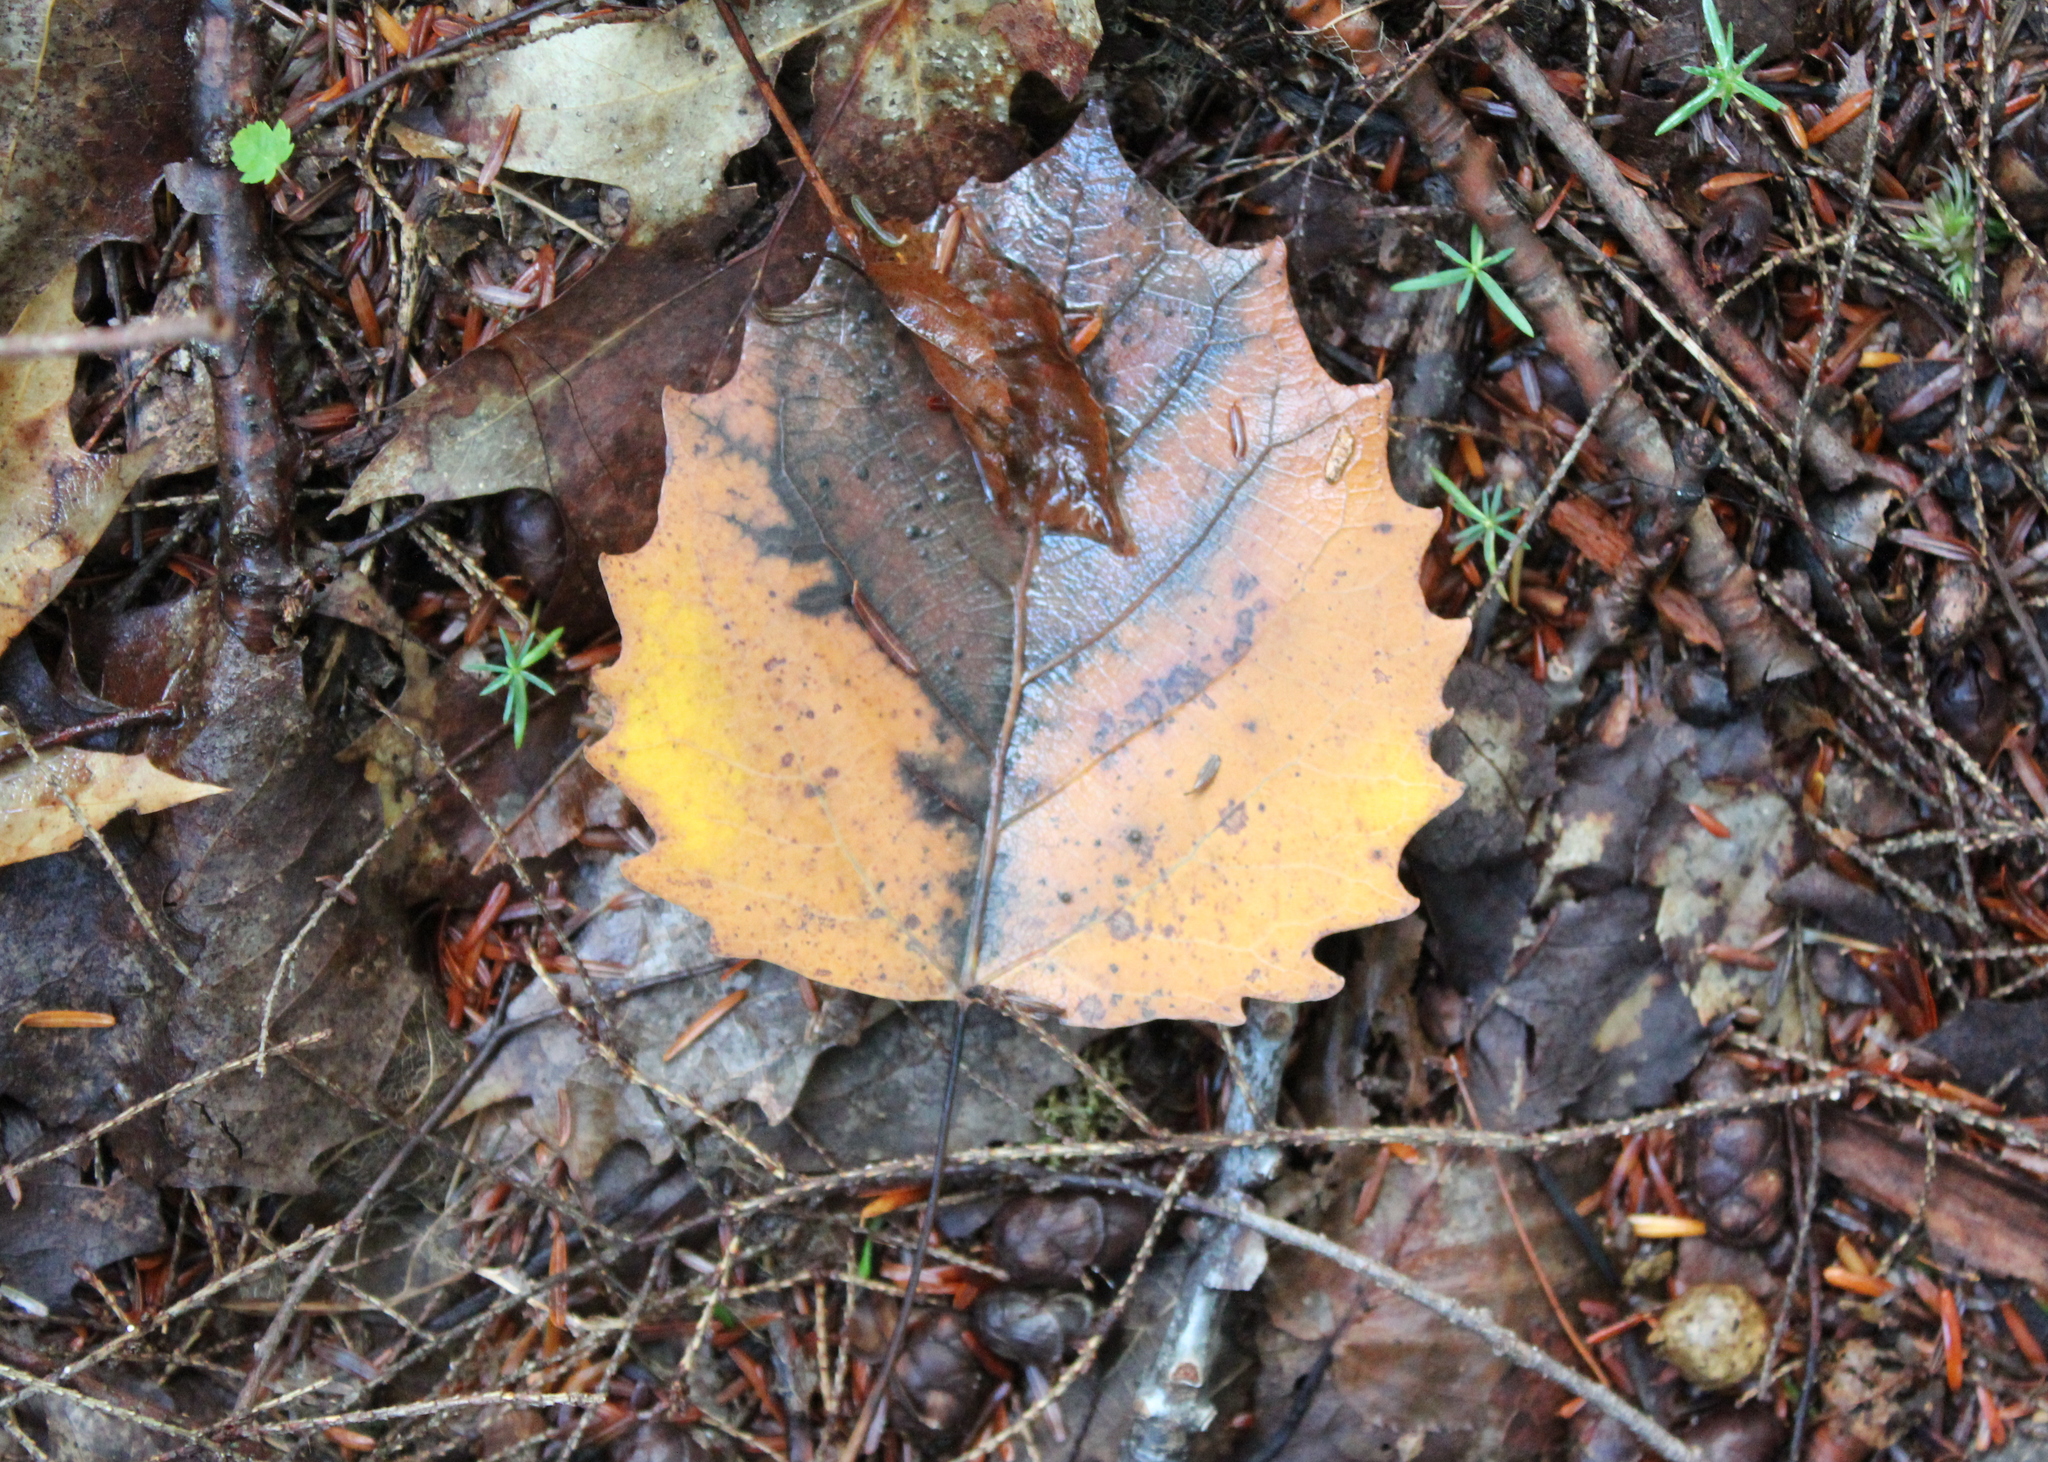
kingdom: Plantae
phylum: Tracheophyta
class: Magnoliopsida
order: Malpighiales
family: Salicaceae
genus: Populus
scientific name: Populus grandidentata
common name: Bigtooth aspen
